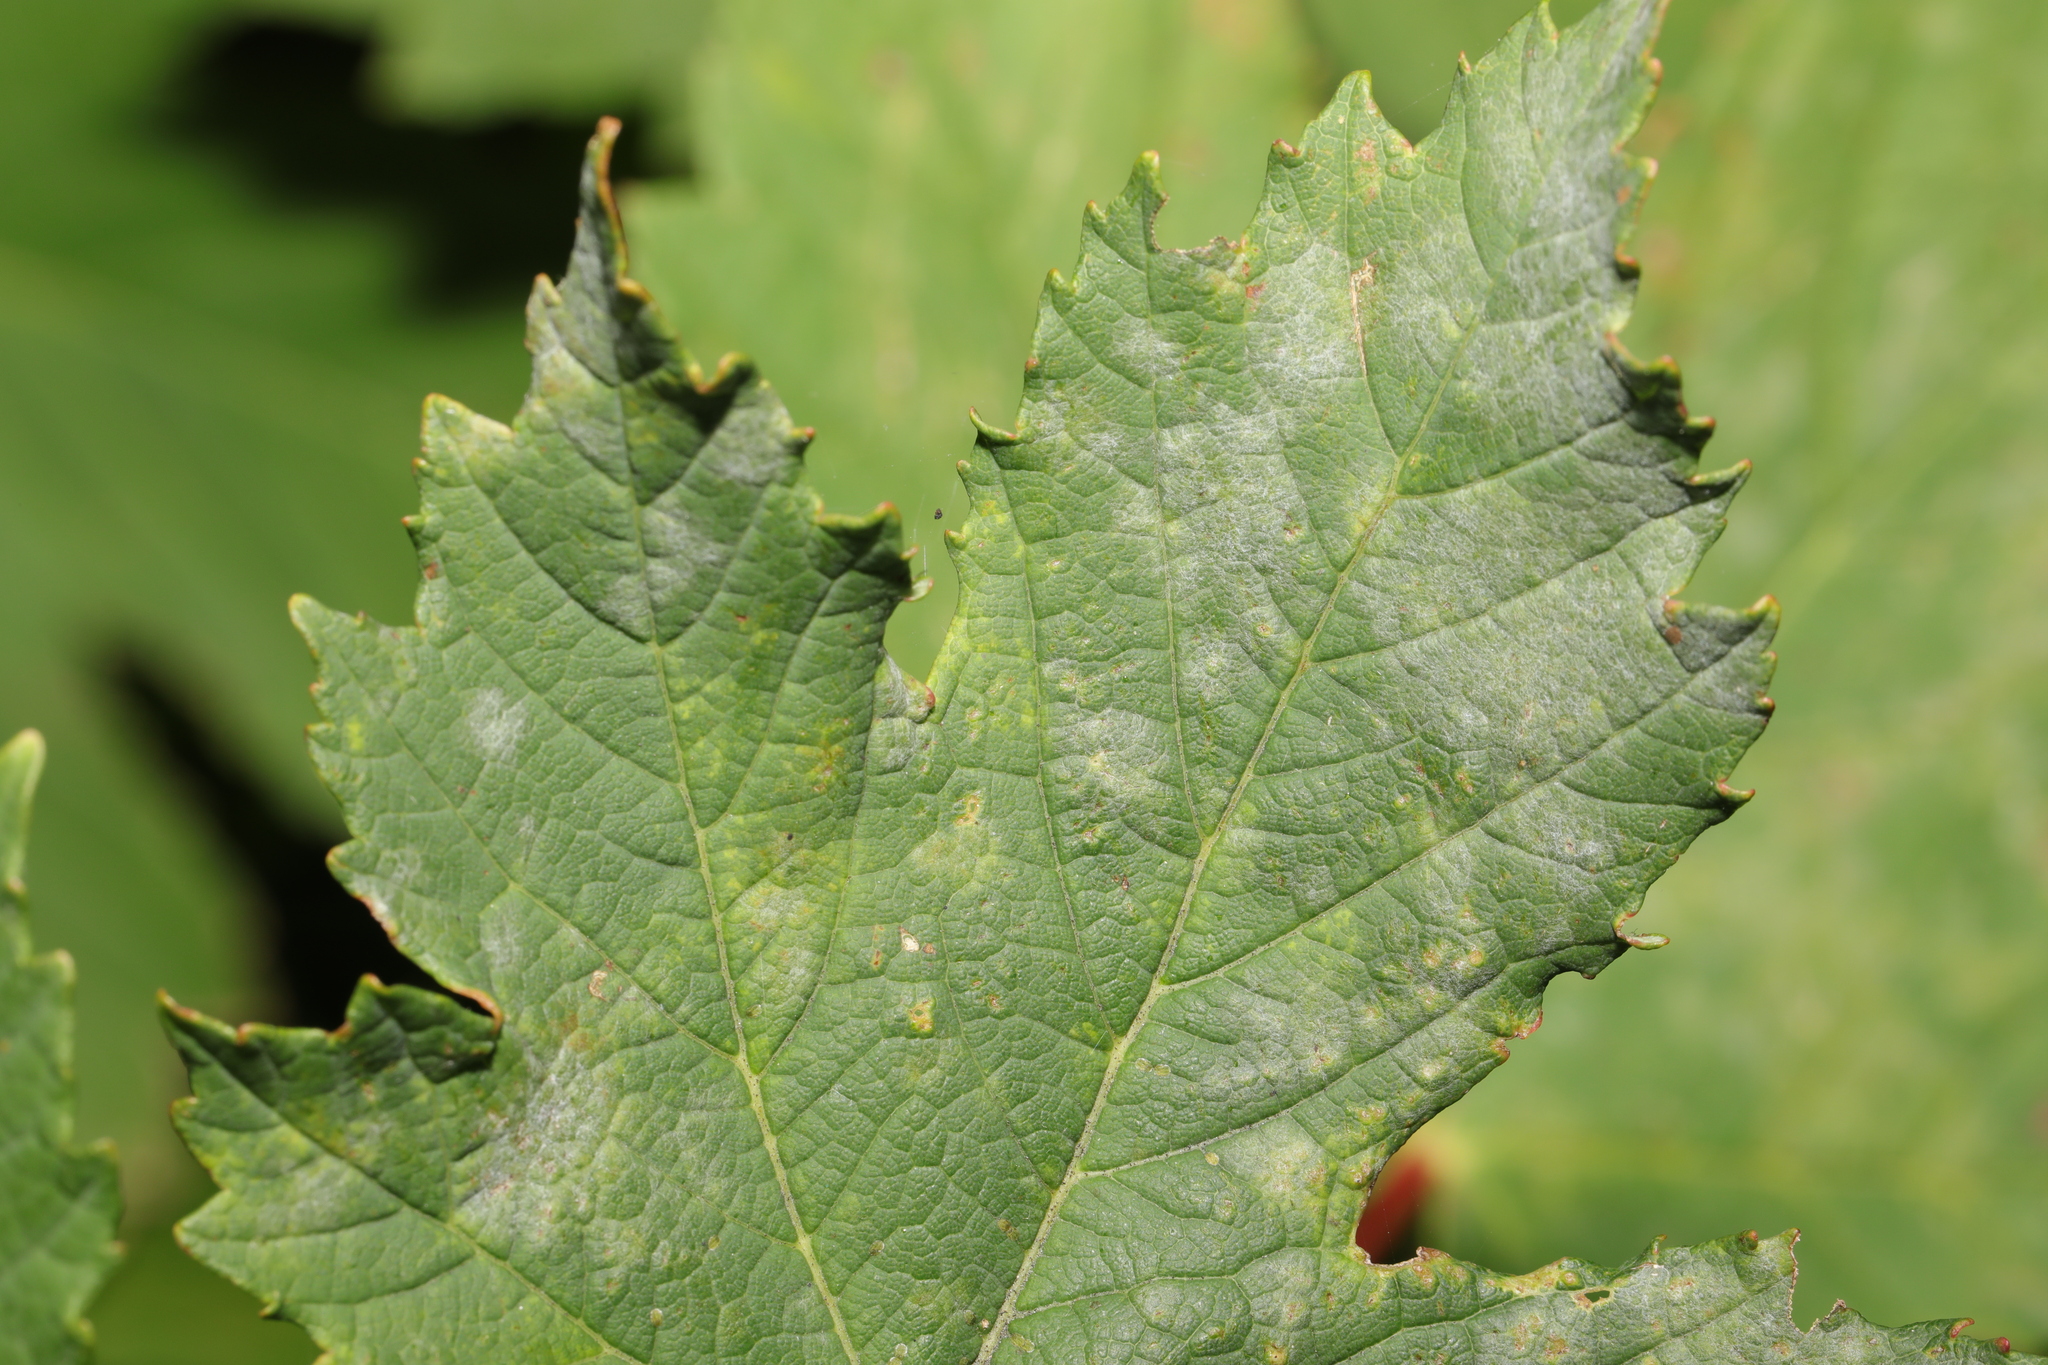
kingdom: Fungi
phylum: Ascomycota
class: Leotiomycetes
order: Helotiales
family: Erysiphaceae
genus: Sawadaea
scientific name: Sawadaea bicornis
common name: Maple mildew
